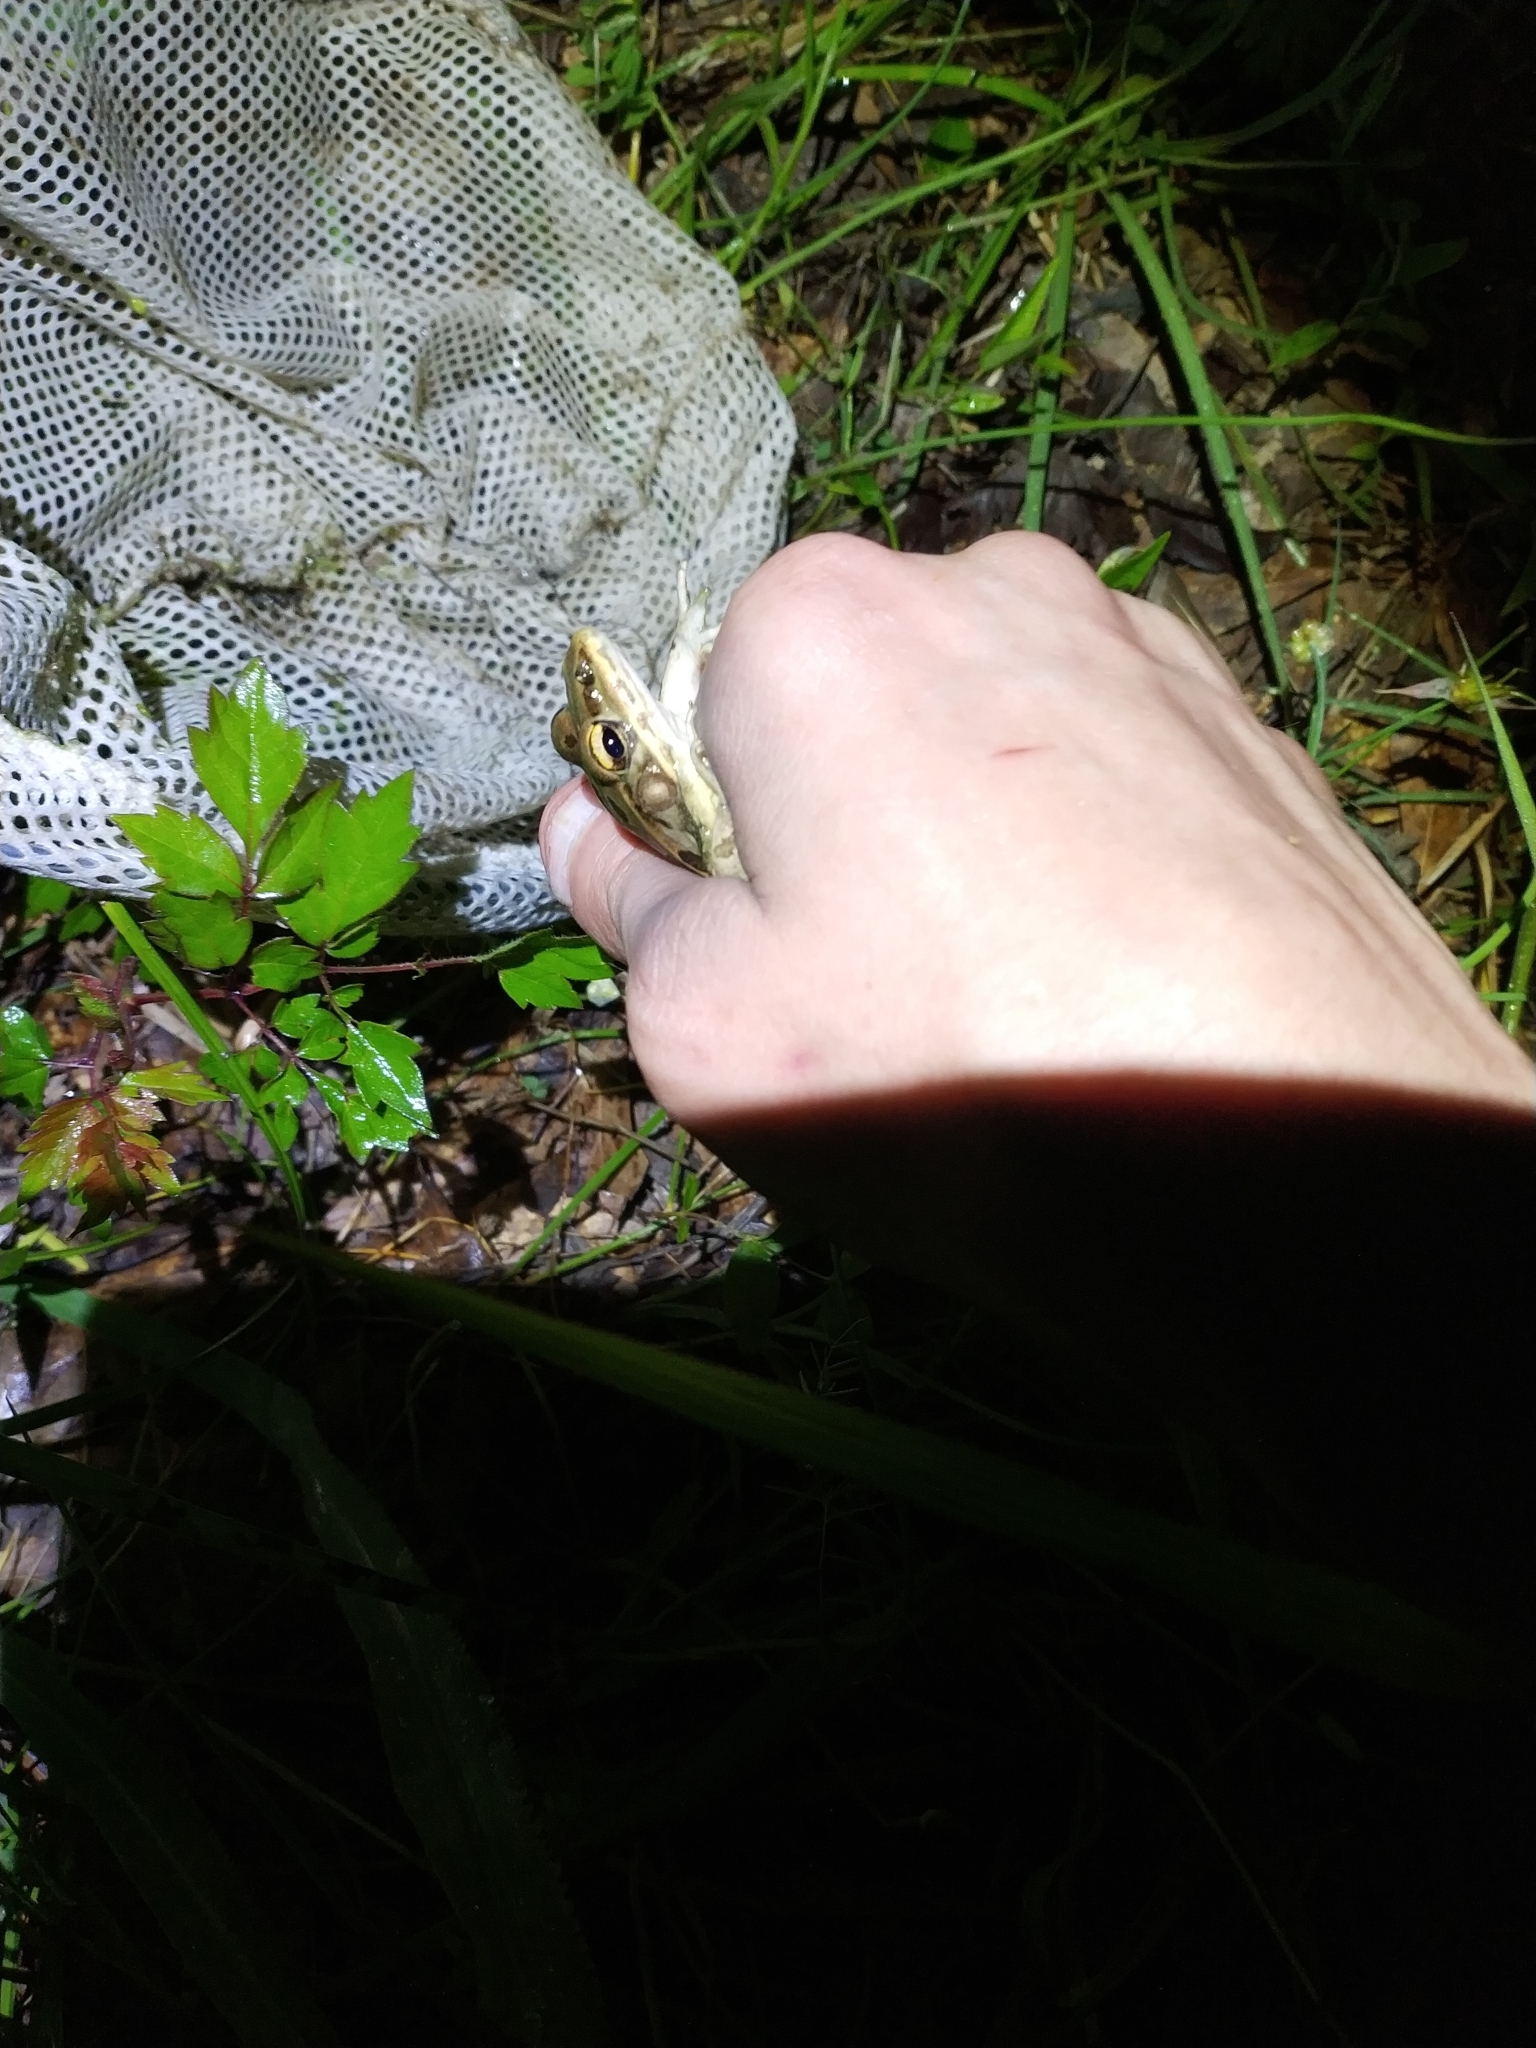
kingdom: Animalia
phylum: Chordata
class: Amphibia
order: Anura
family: Ranidae
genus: Lithobates
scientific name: Lithobates sphenocephalus
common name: Southern leopard frog
